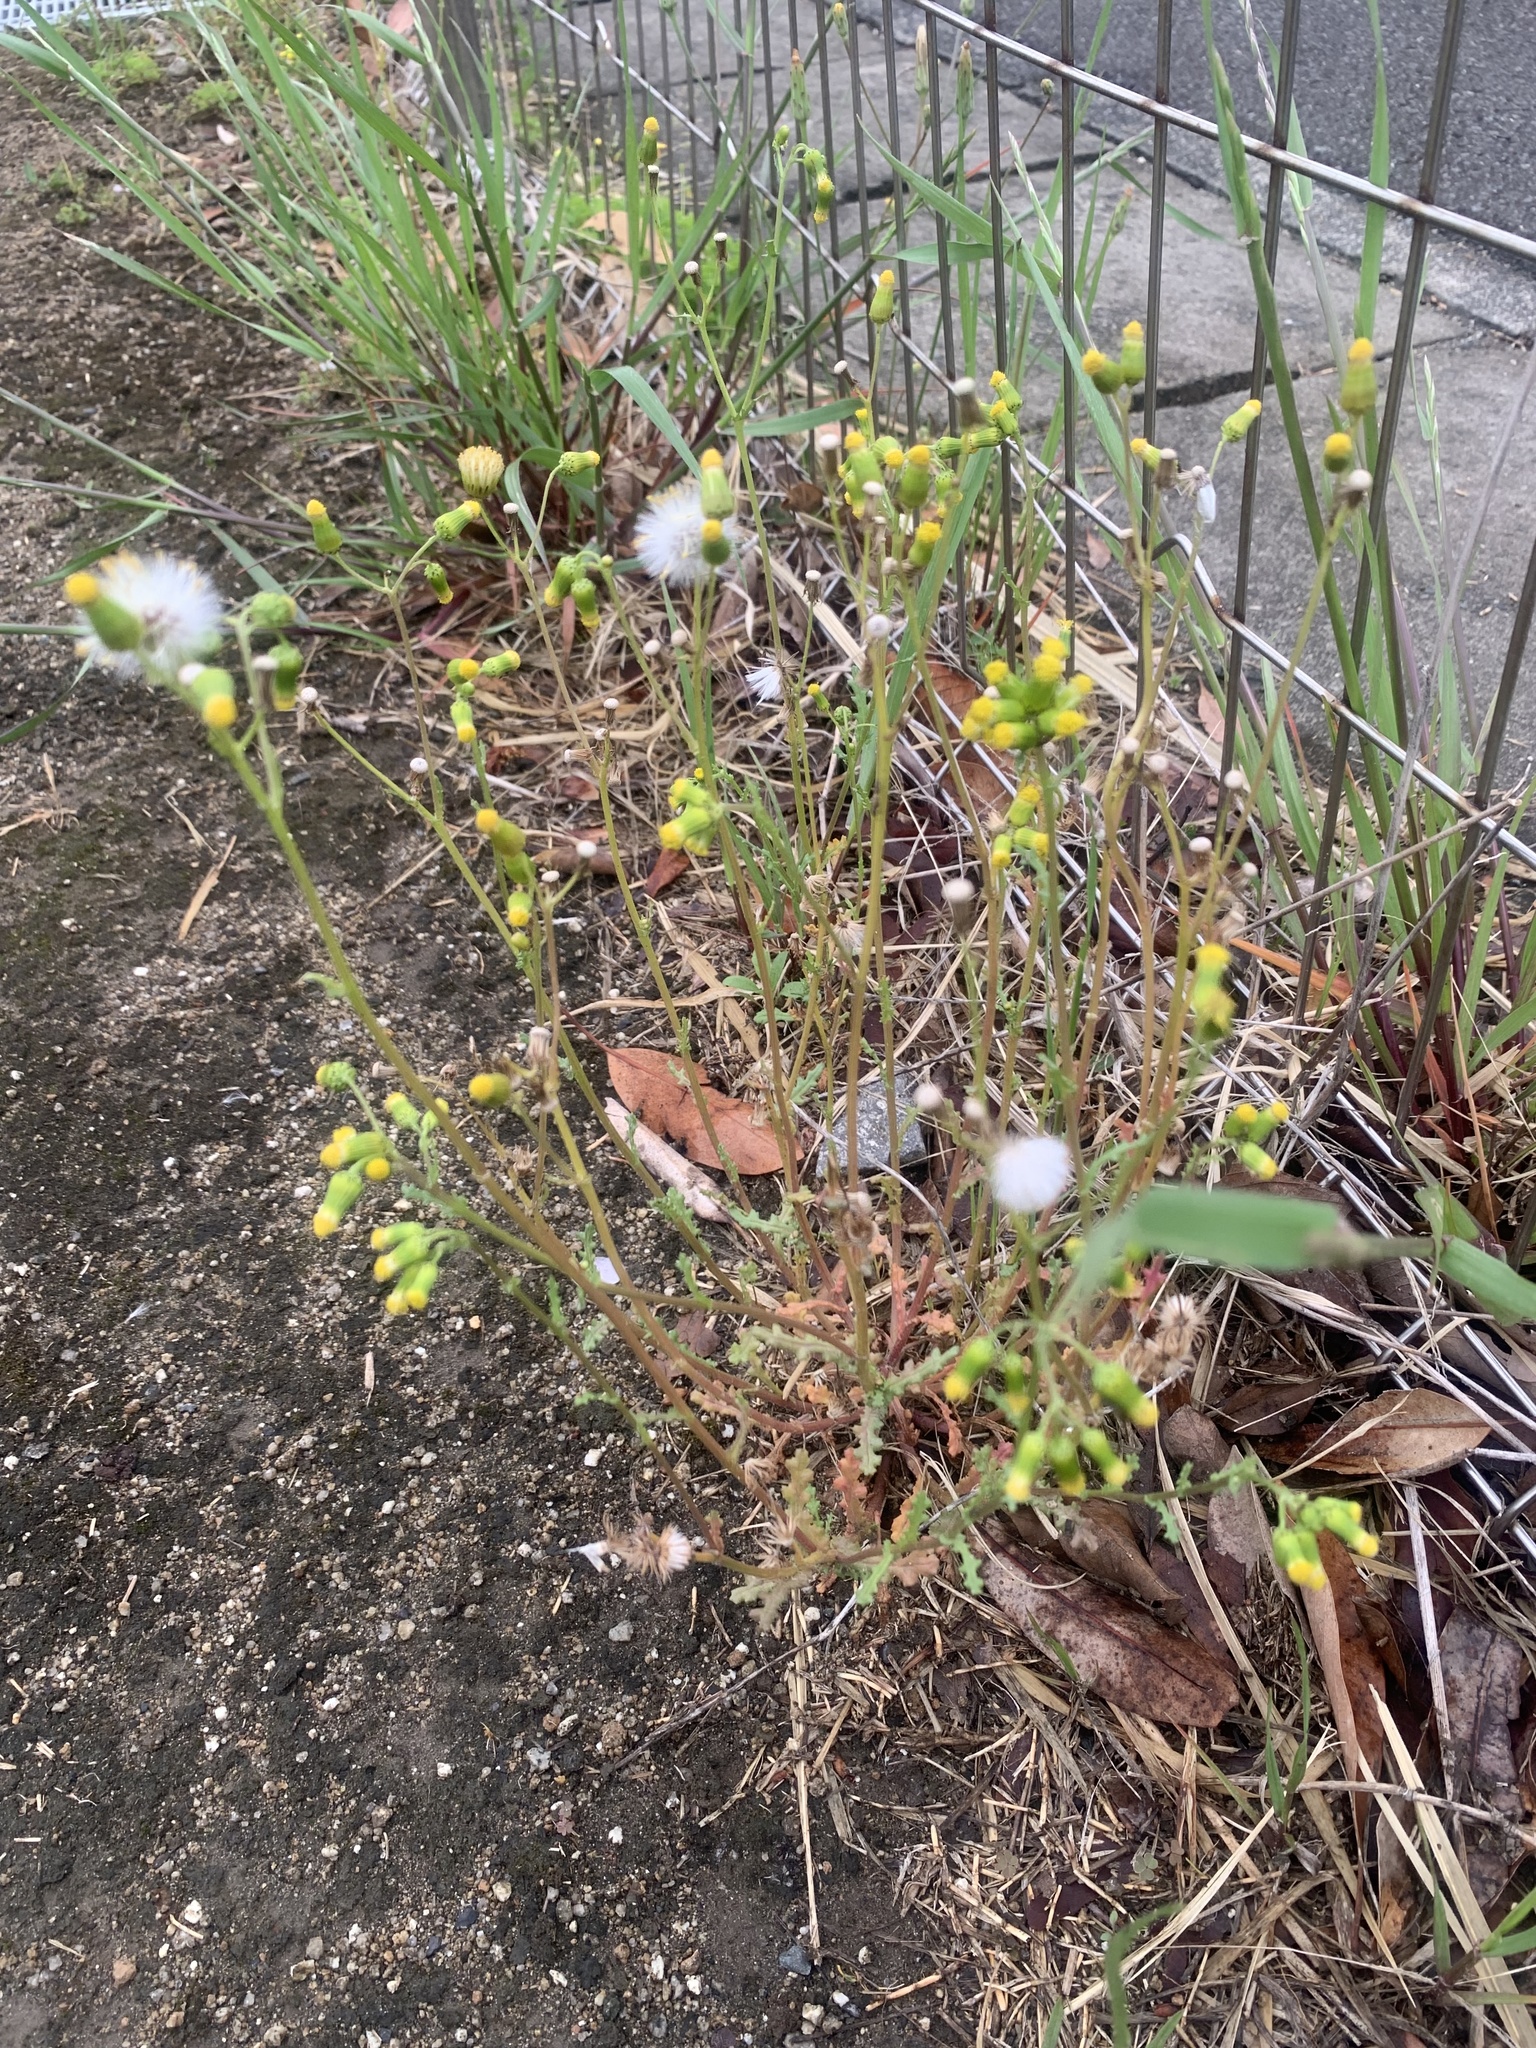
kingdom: Plantae
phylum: Tracheophyta
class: Magnoliopsida
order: Asterales
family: Asteraceae
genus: Senecio
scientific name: Senecio vulgaris
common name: Old-man-in-the-spring
